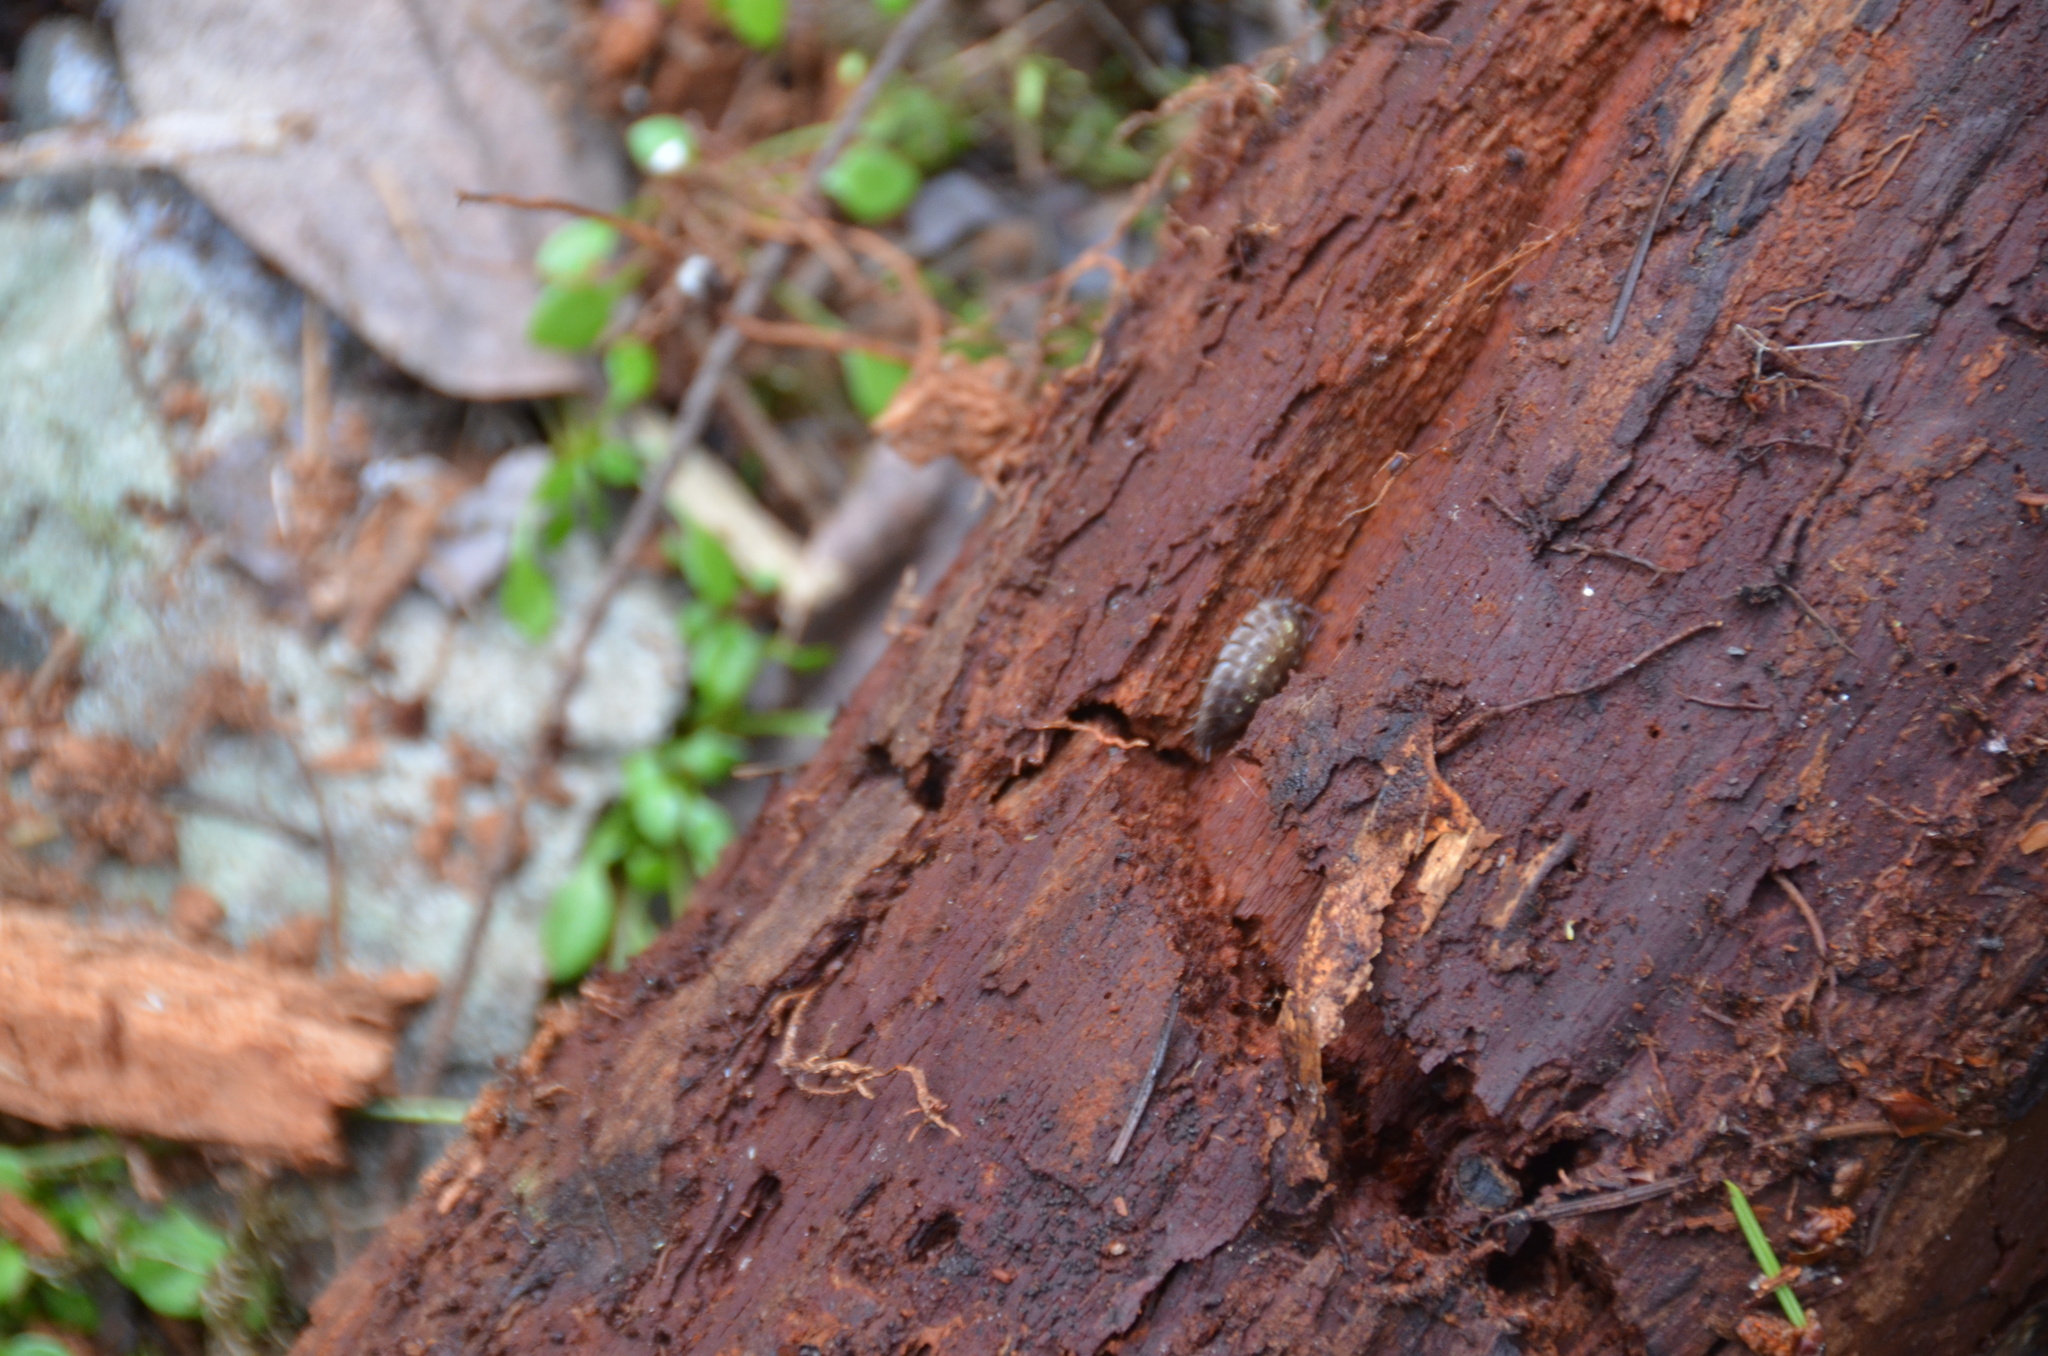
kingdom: Animalia
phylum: Arthropoda
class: Malacostraca
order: Isopoda
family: Oniscidae
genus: Oniscus
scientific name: Oniscus asellus
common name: Common shiny woodlouse
